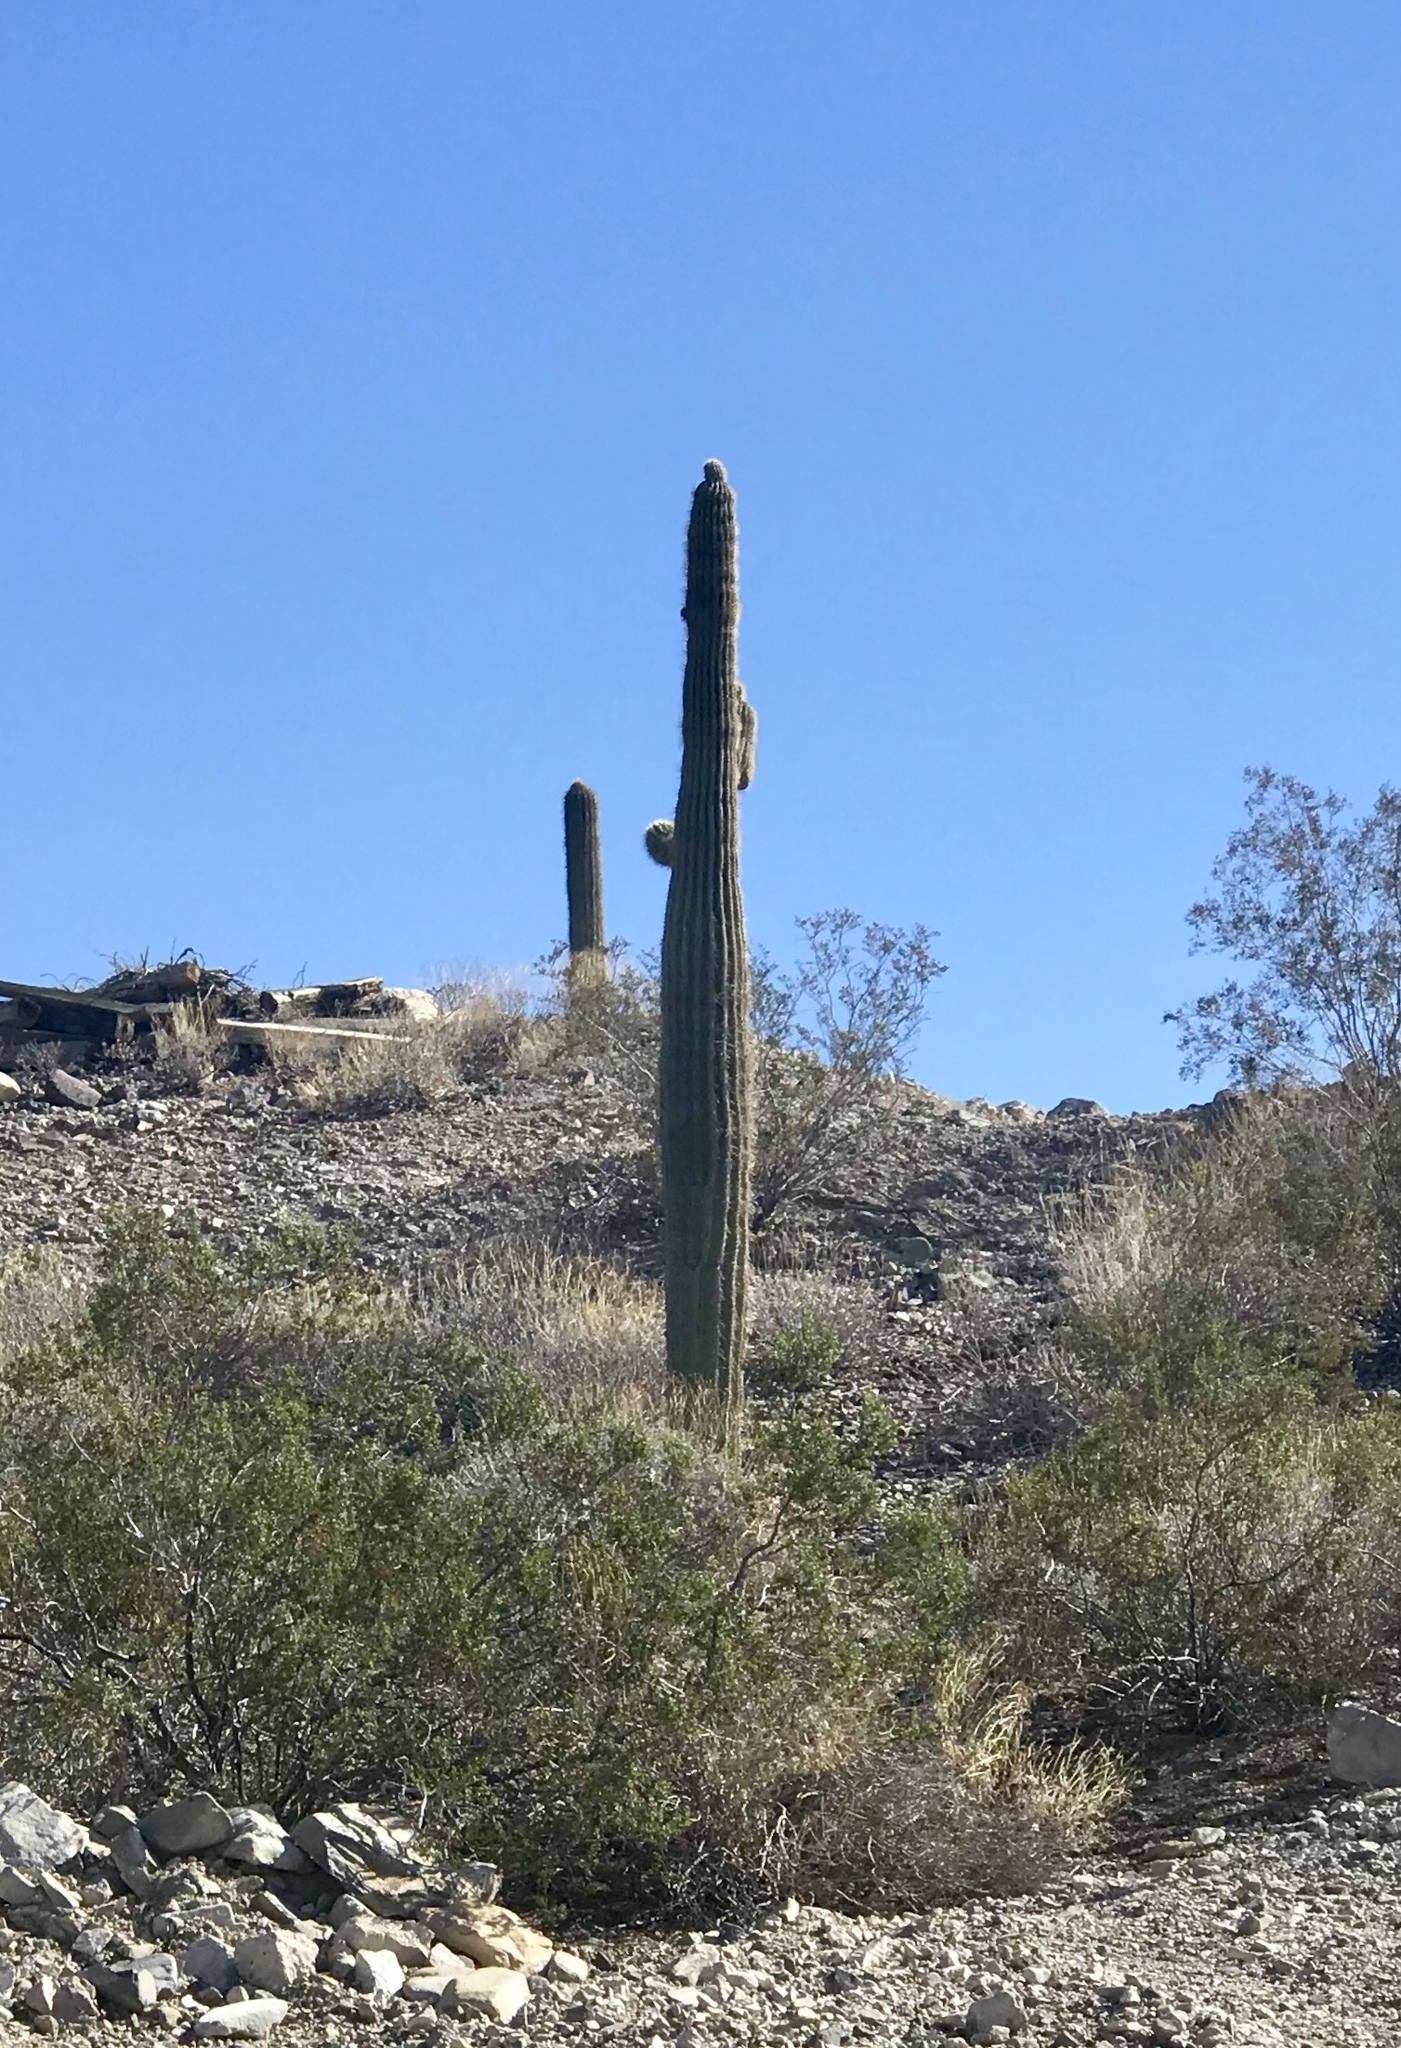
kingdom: Plantae
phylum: Tracheophyta
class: Magnoliopsida
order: Caryophyllales
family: Cactaceae
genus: Carnegiea
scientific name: Carnegiea gigantea
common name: Saguaro
